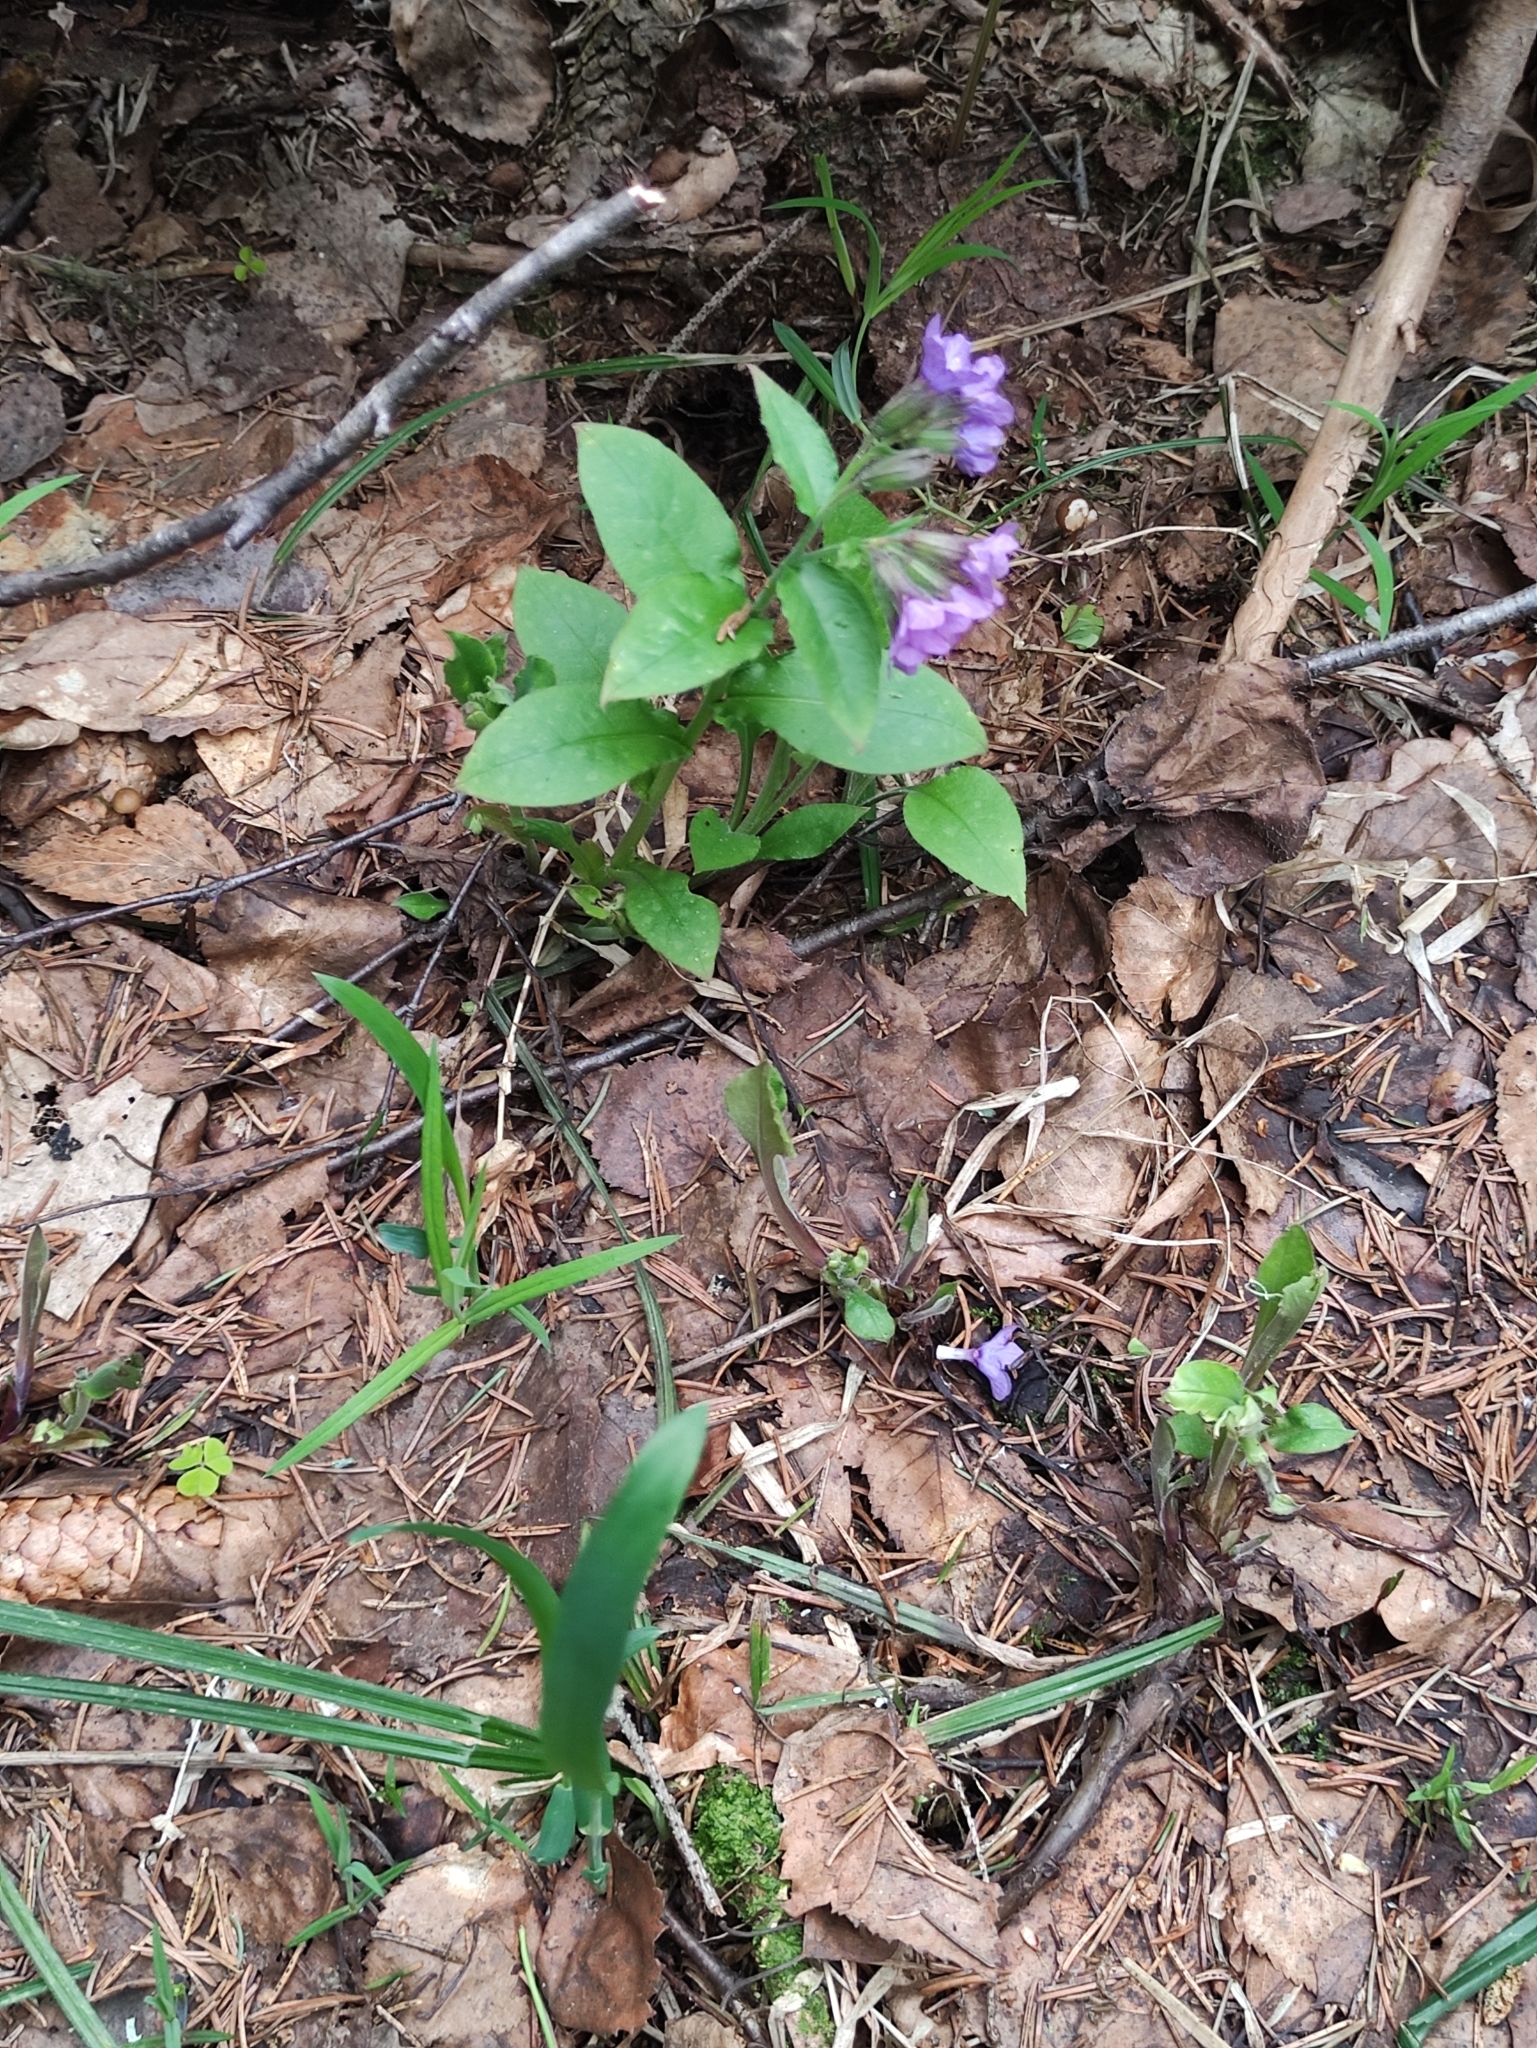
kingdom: Plantae
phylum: Tracheophyta
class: Magnoliopsida
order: Boraginales
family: Boraginaceae
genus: Pulmonaria
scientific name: Pulmonaria obscura
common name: Suffolk lungwort
